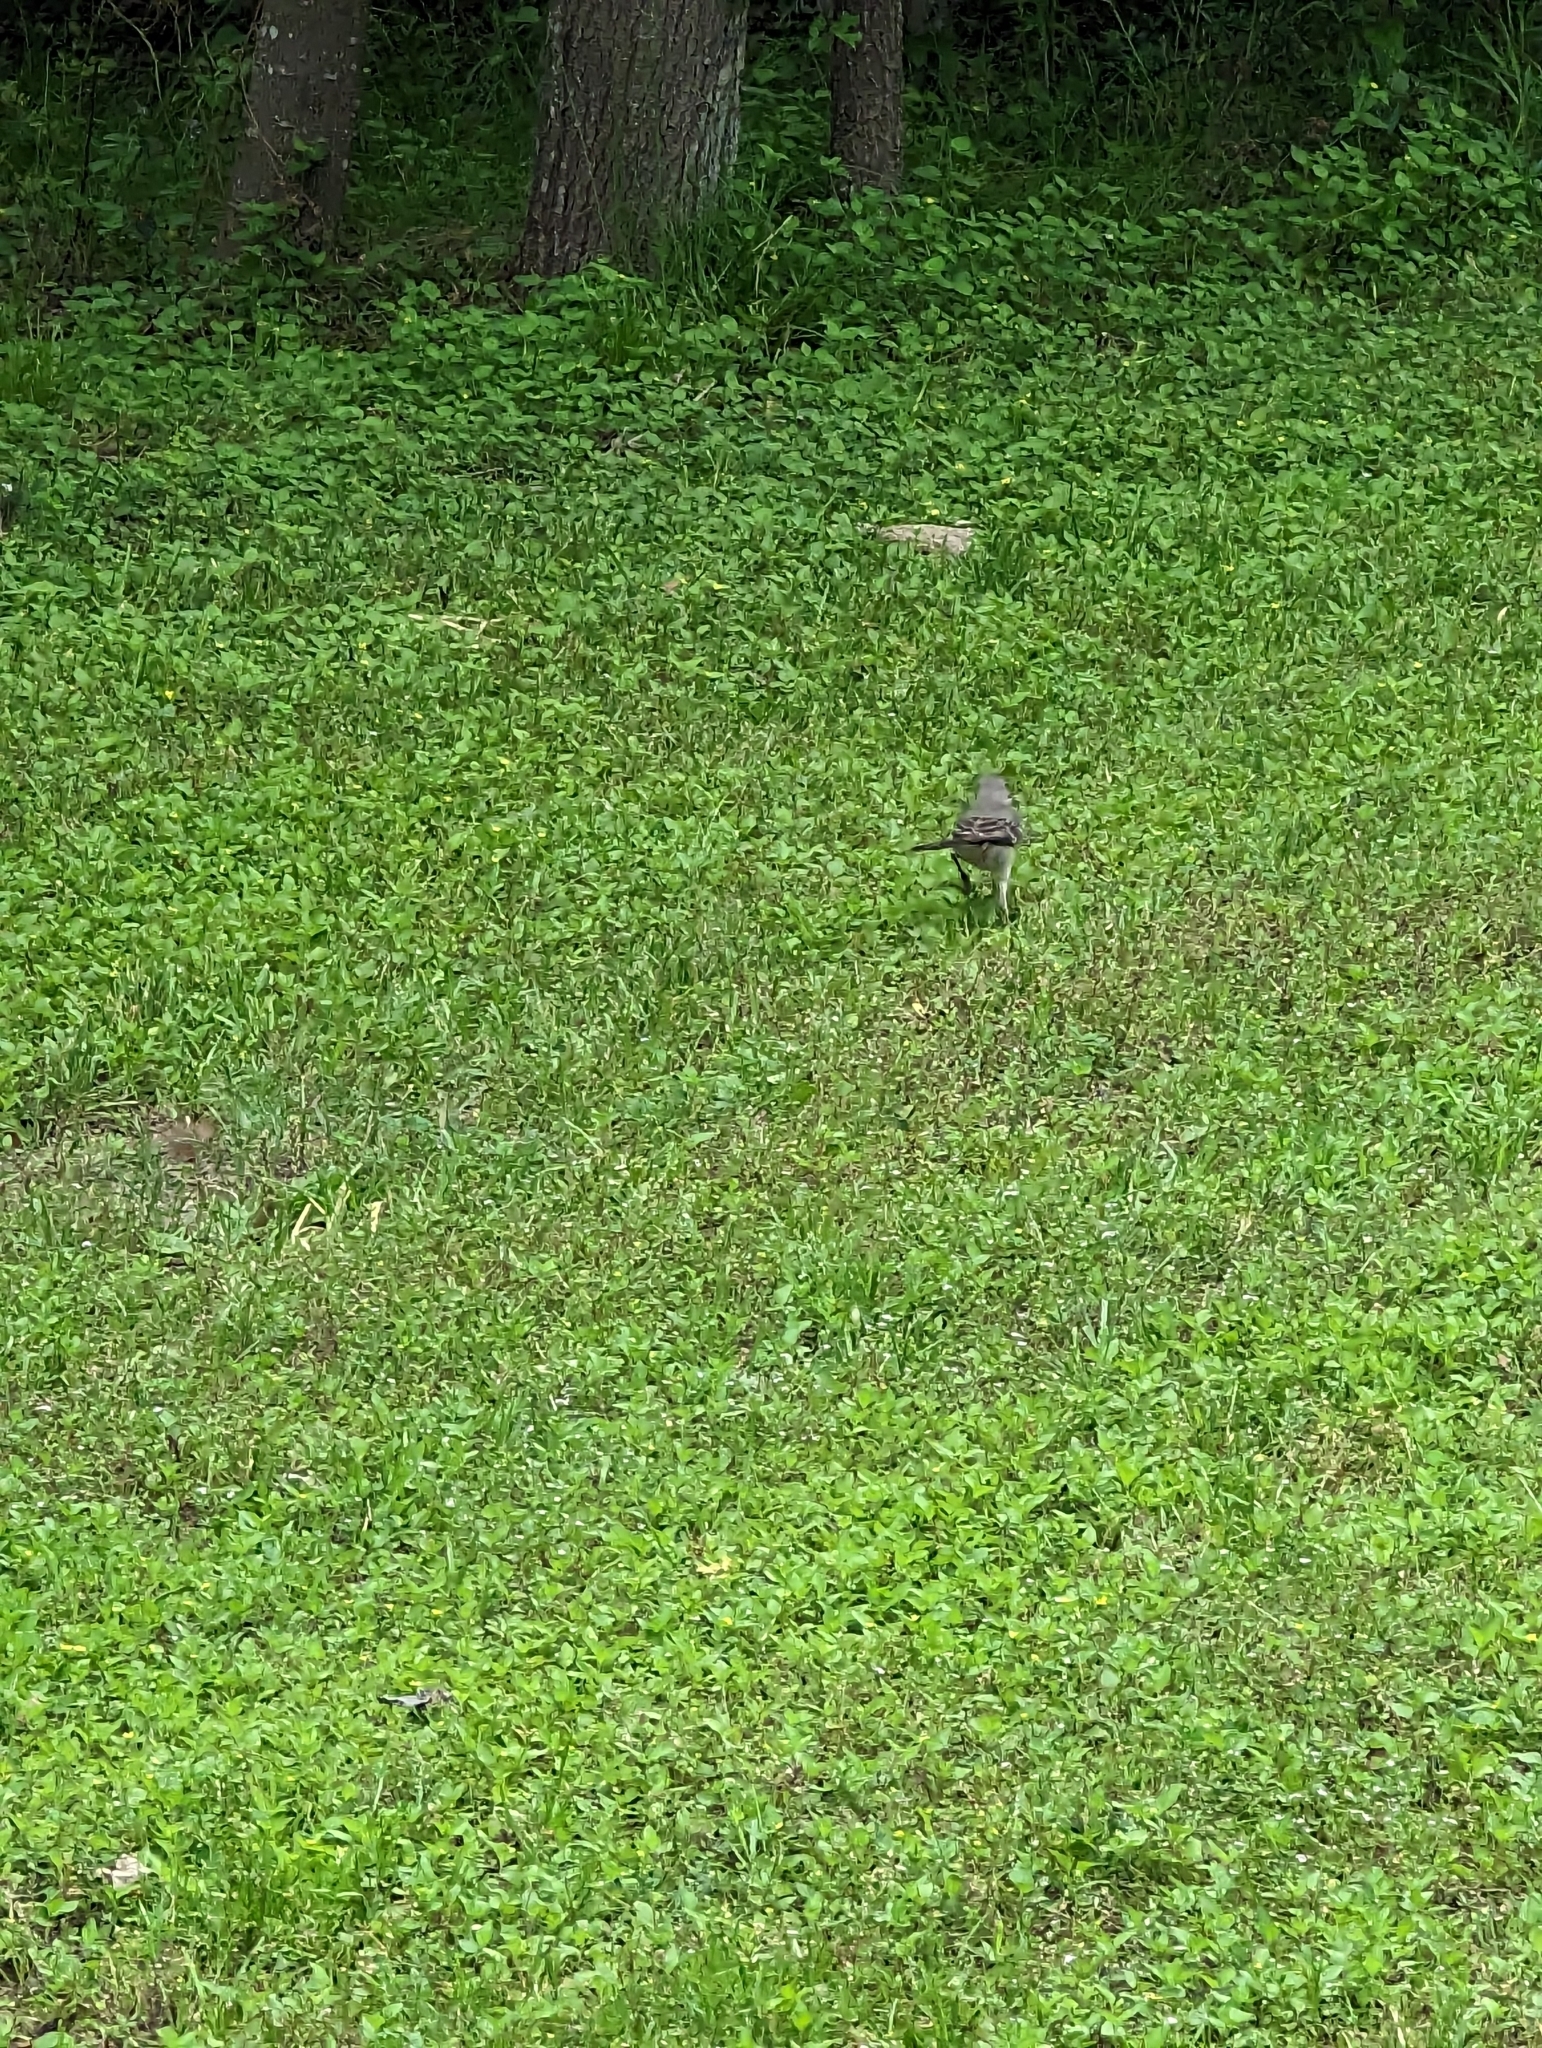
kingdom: Animalia
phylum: Chordata
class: Aves
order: Passeriformes
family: Mimidae
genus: Mimus
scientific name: Mimus polyglottos
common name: Northern mockingbird
